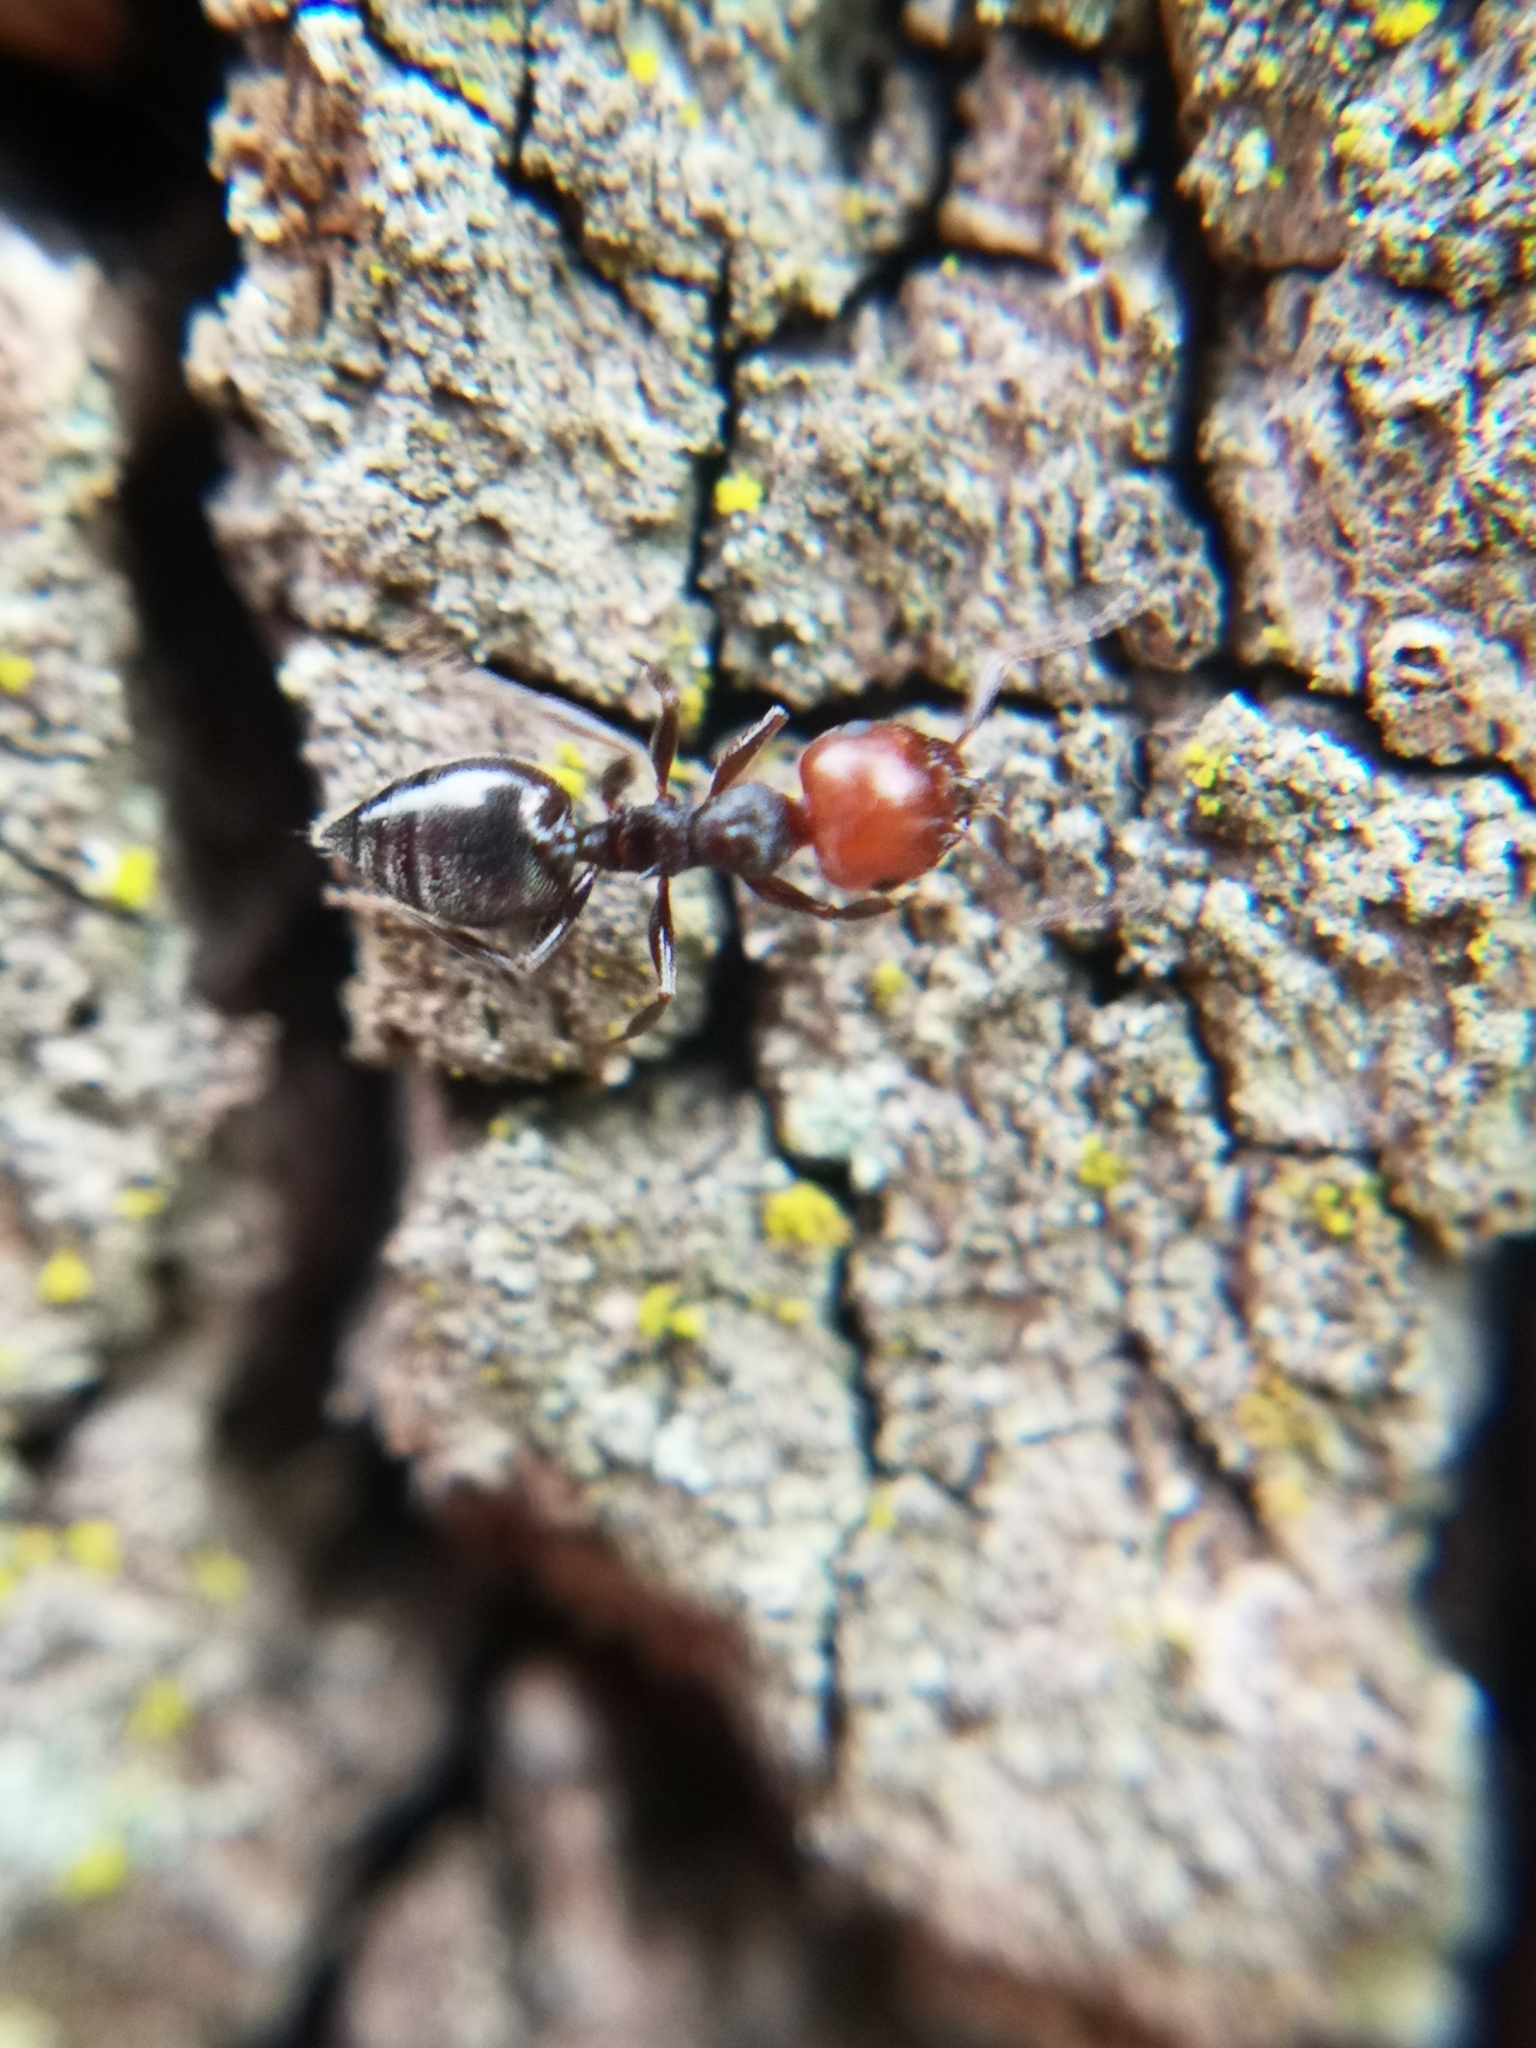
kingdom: Animalia
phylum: Arthropoda
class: Insecta
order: Hymenoptera
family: Formicidae
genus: Crematogaster
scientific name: Crematogaster scutellaris
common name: Fourmi du liège
